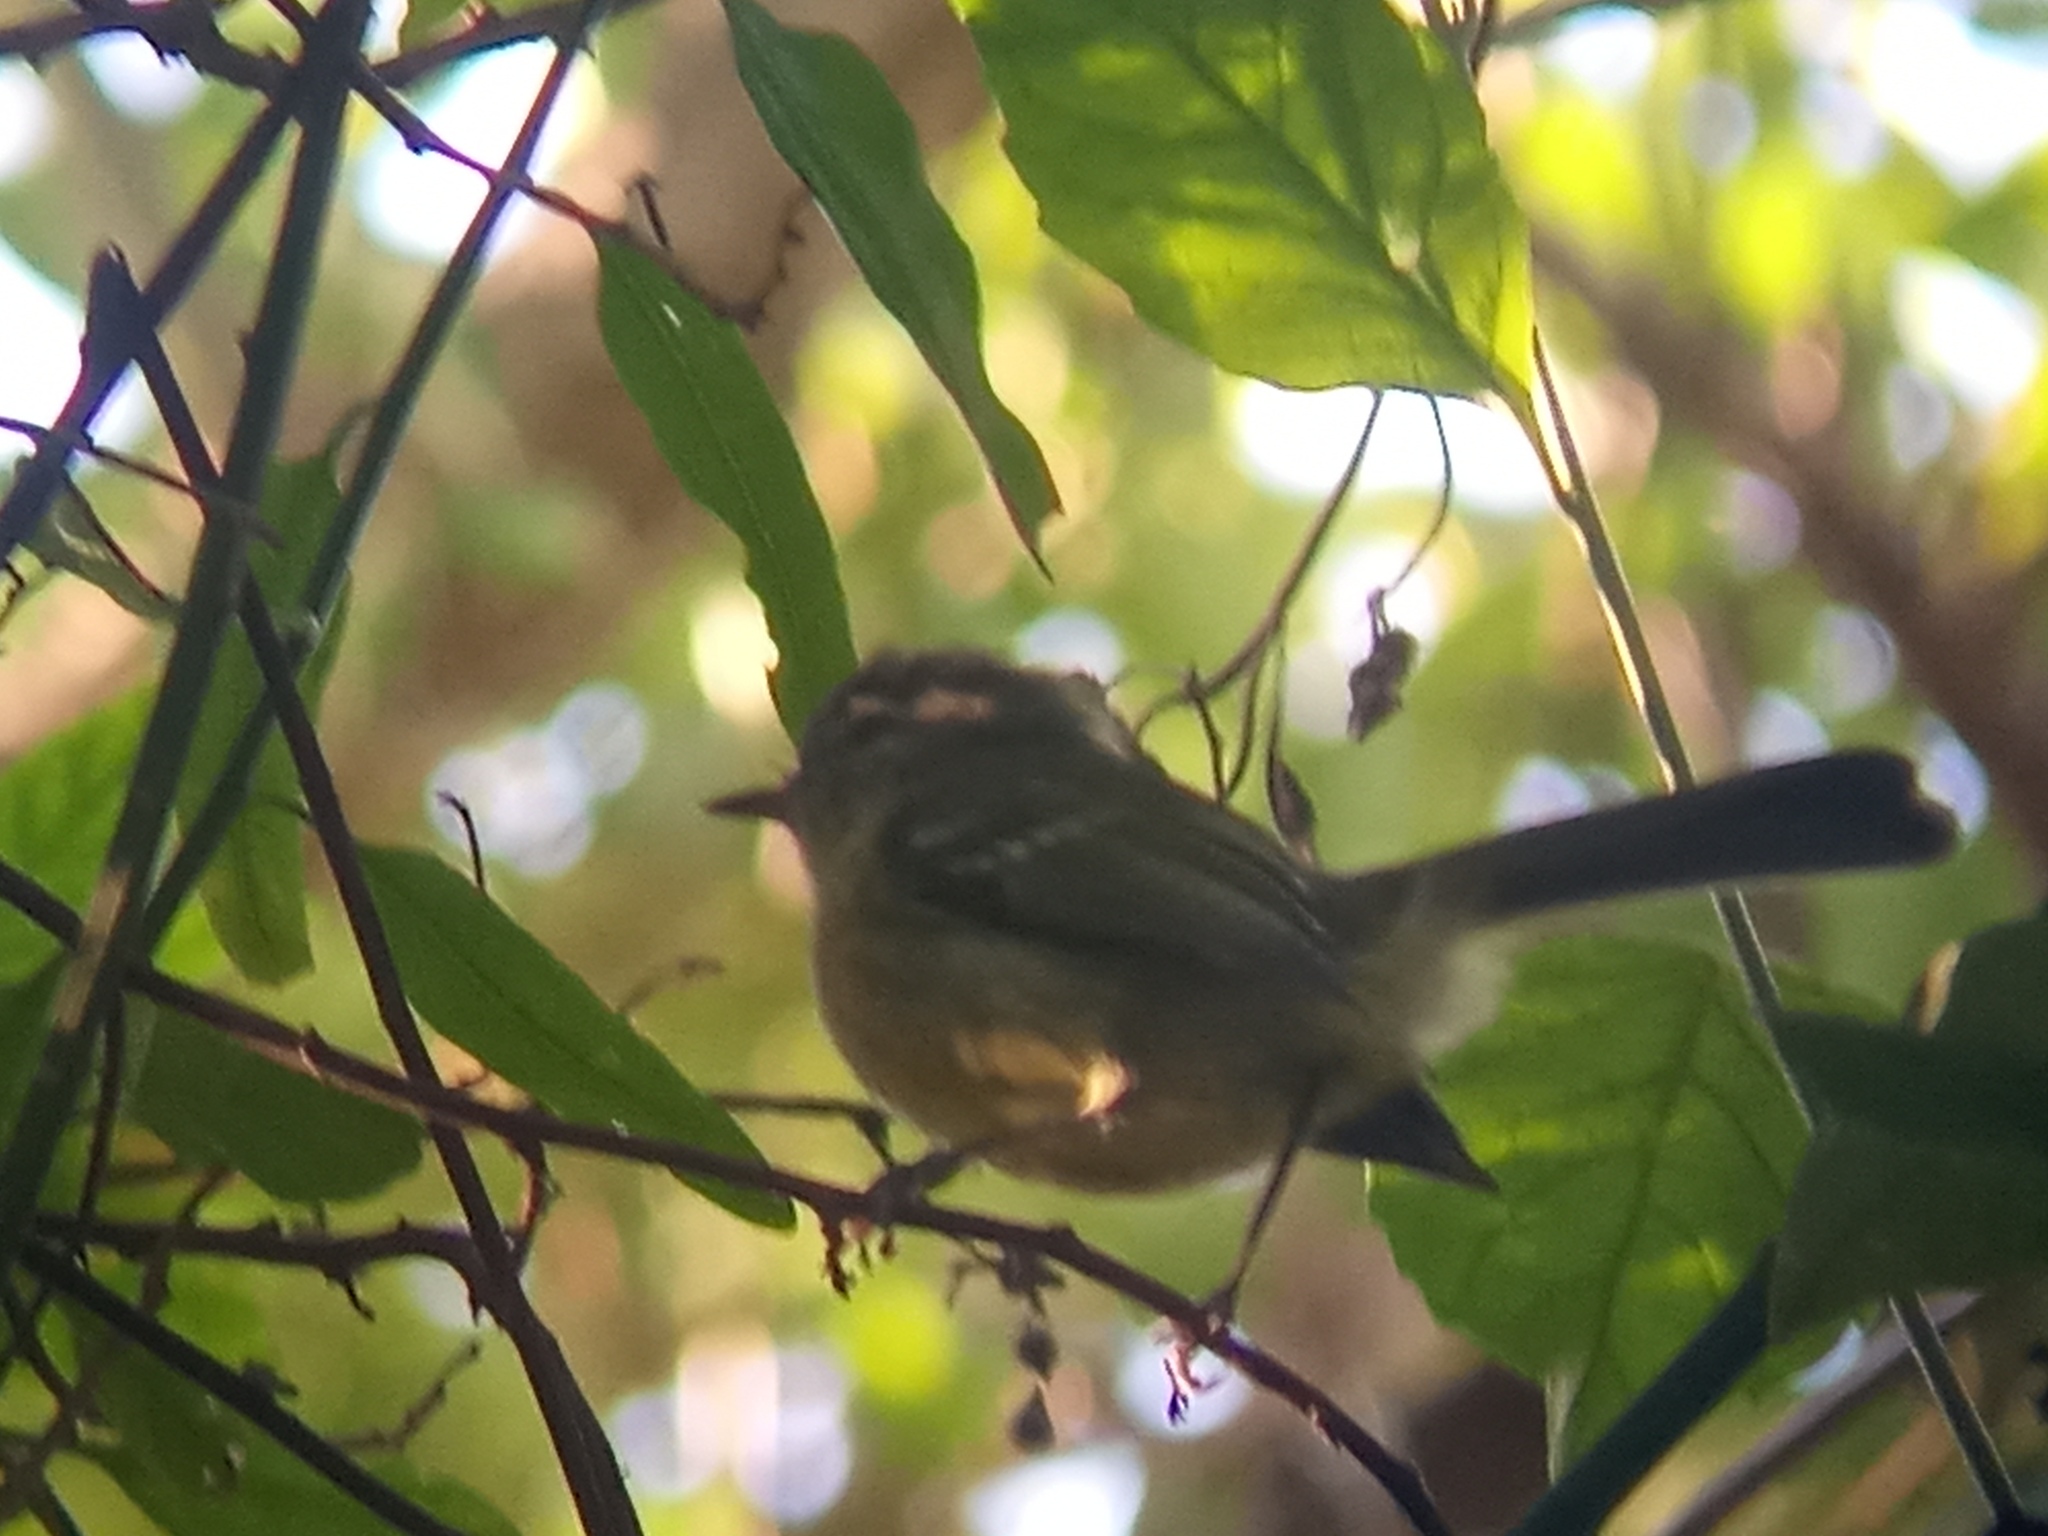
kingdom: Animalia
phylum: Chordata
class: Aves
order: Passeriformes
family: Tyrannidae
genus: Phylloscartes
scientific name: Phylloscartes ventralis
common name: Mottle-cheeked tyrannulet
